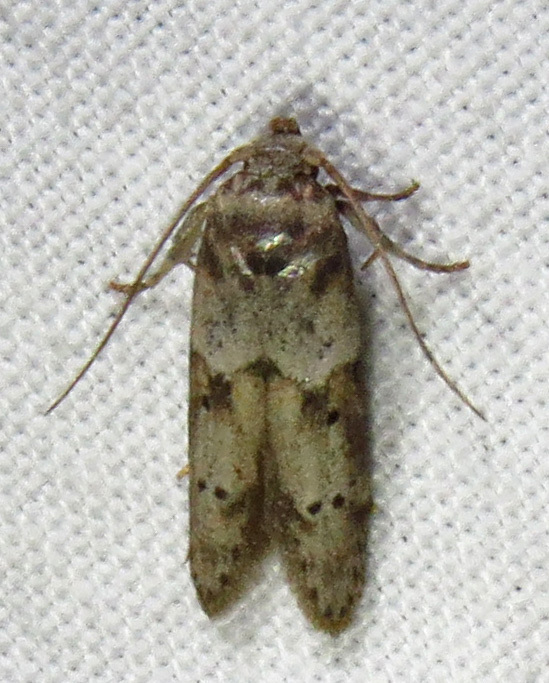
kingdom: Animalia
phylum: Arthropoda
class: Insecta
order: Lepidoptera
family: Blastobasidae
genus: Blastobasis
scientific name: Blastobasis glandulella
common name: Acorn moth
